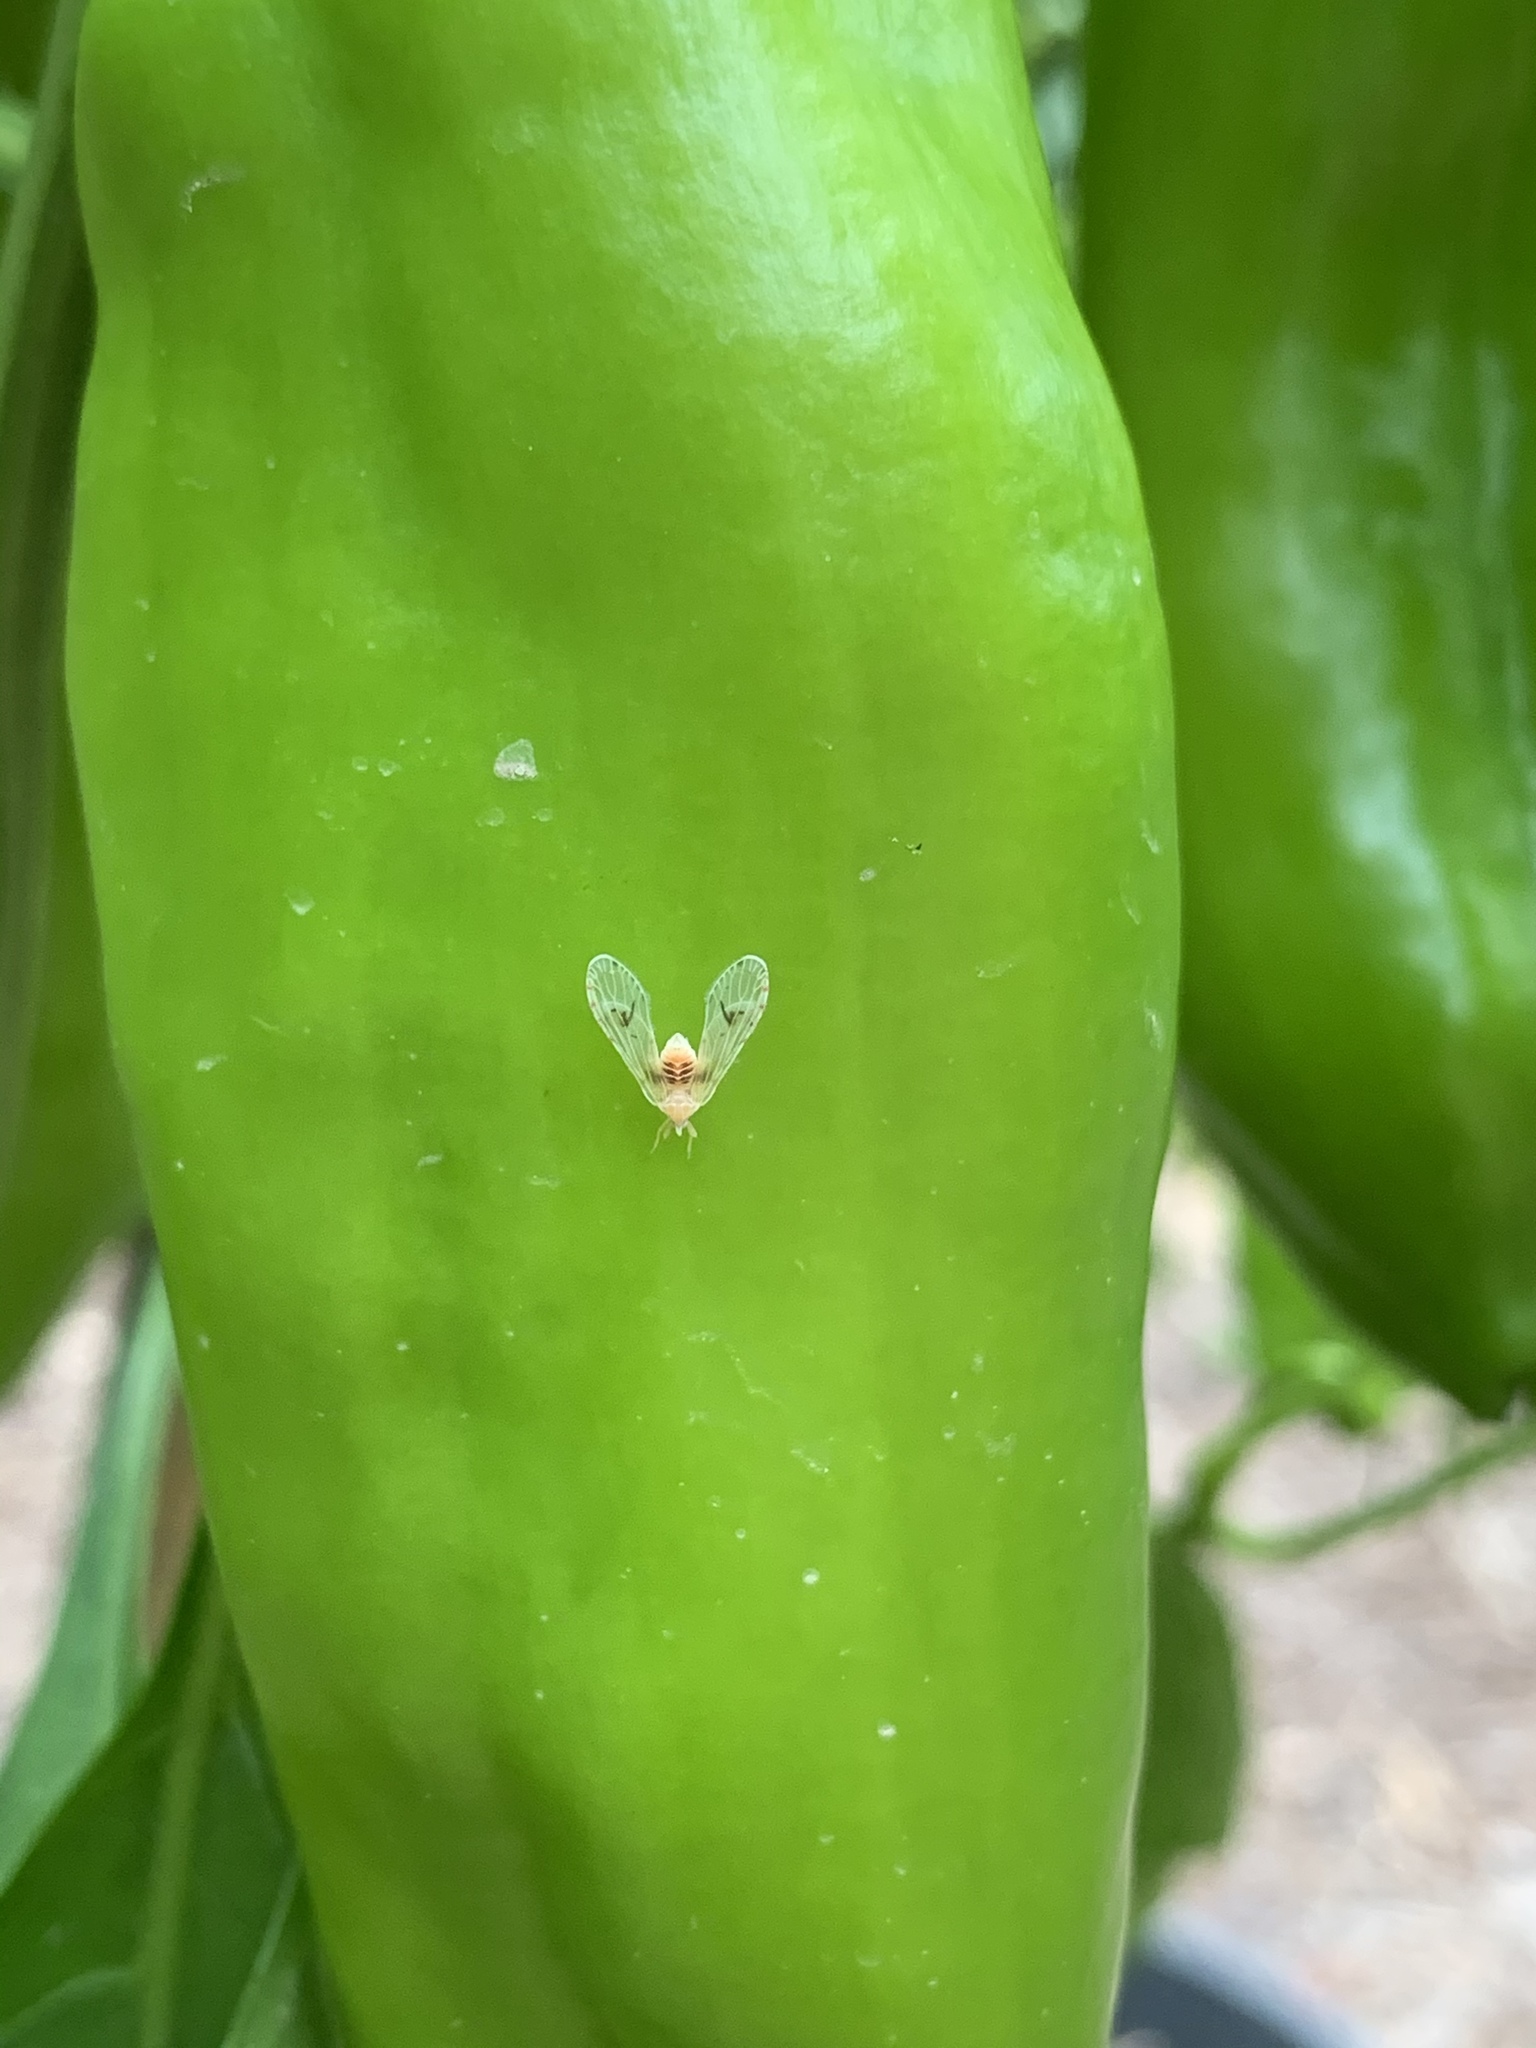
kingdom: Animalia
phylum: Arthropoda
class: Insecta
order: Hemiptera
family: Derbidae
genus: Anotia
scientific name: Anotia burnetii
